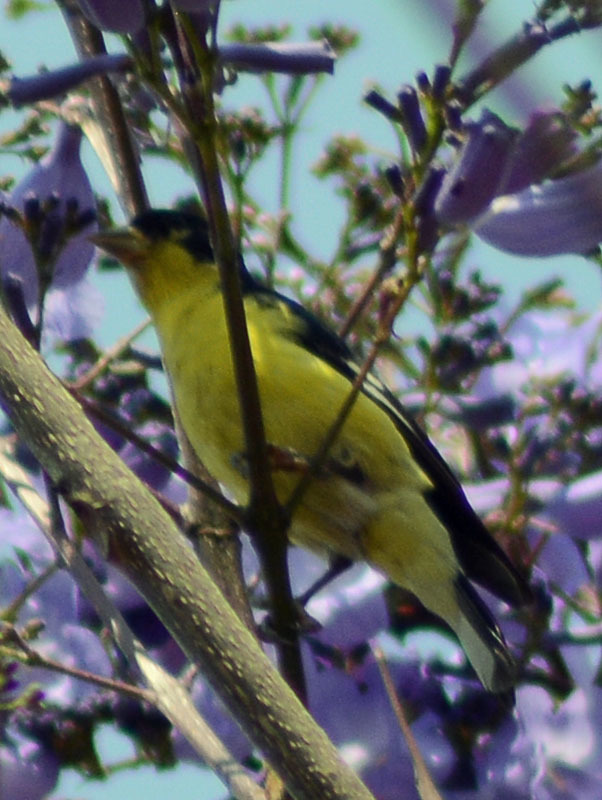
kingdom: Animalia
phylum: Chordata
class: Aves
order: Passeriformes
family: Fringillidae
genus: Spinus
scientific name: Spinus psaltria
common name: Lesser goldfinch
